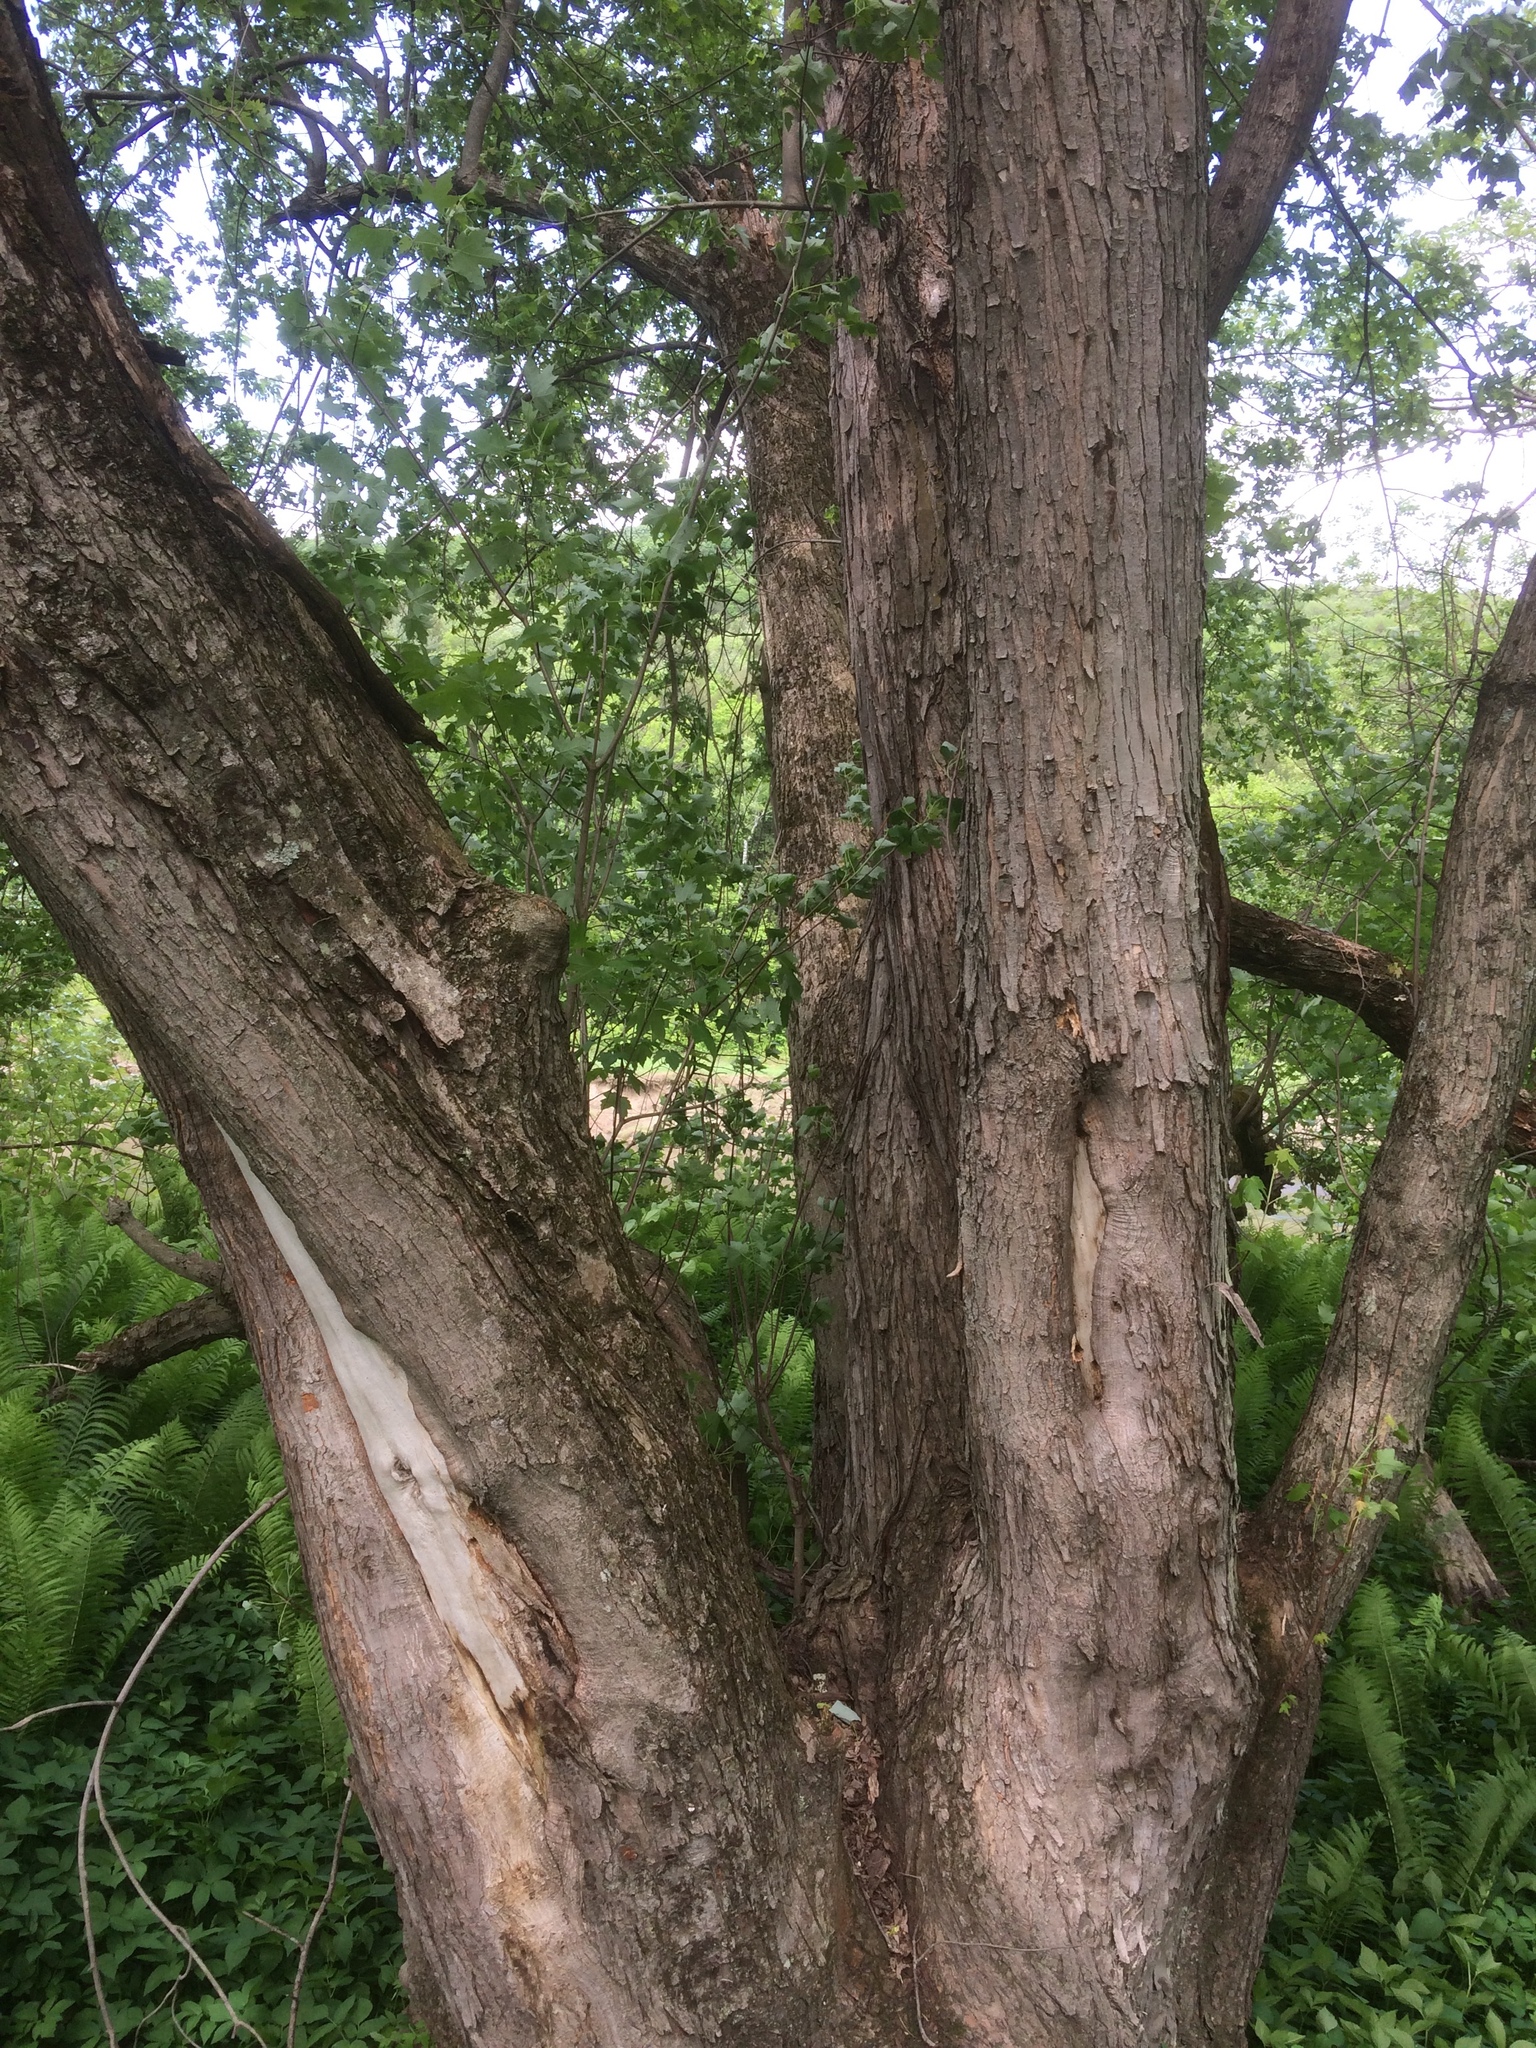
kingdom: Plantae
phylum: Tracheophyta
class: Magnoliopsida
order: Sapindales
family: Sapindaceae
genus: Acer
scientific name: Acer saccharinum
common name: Silver maple
